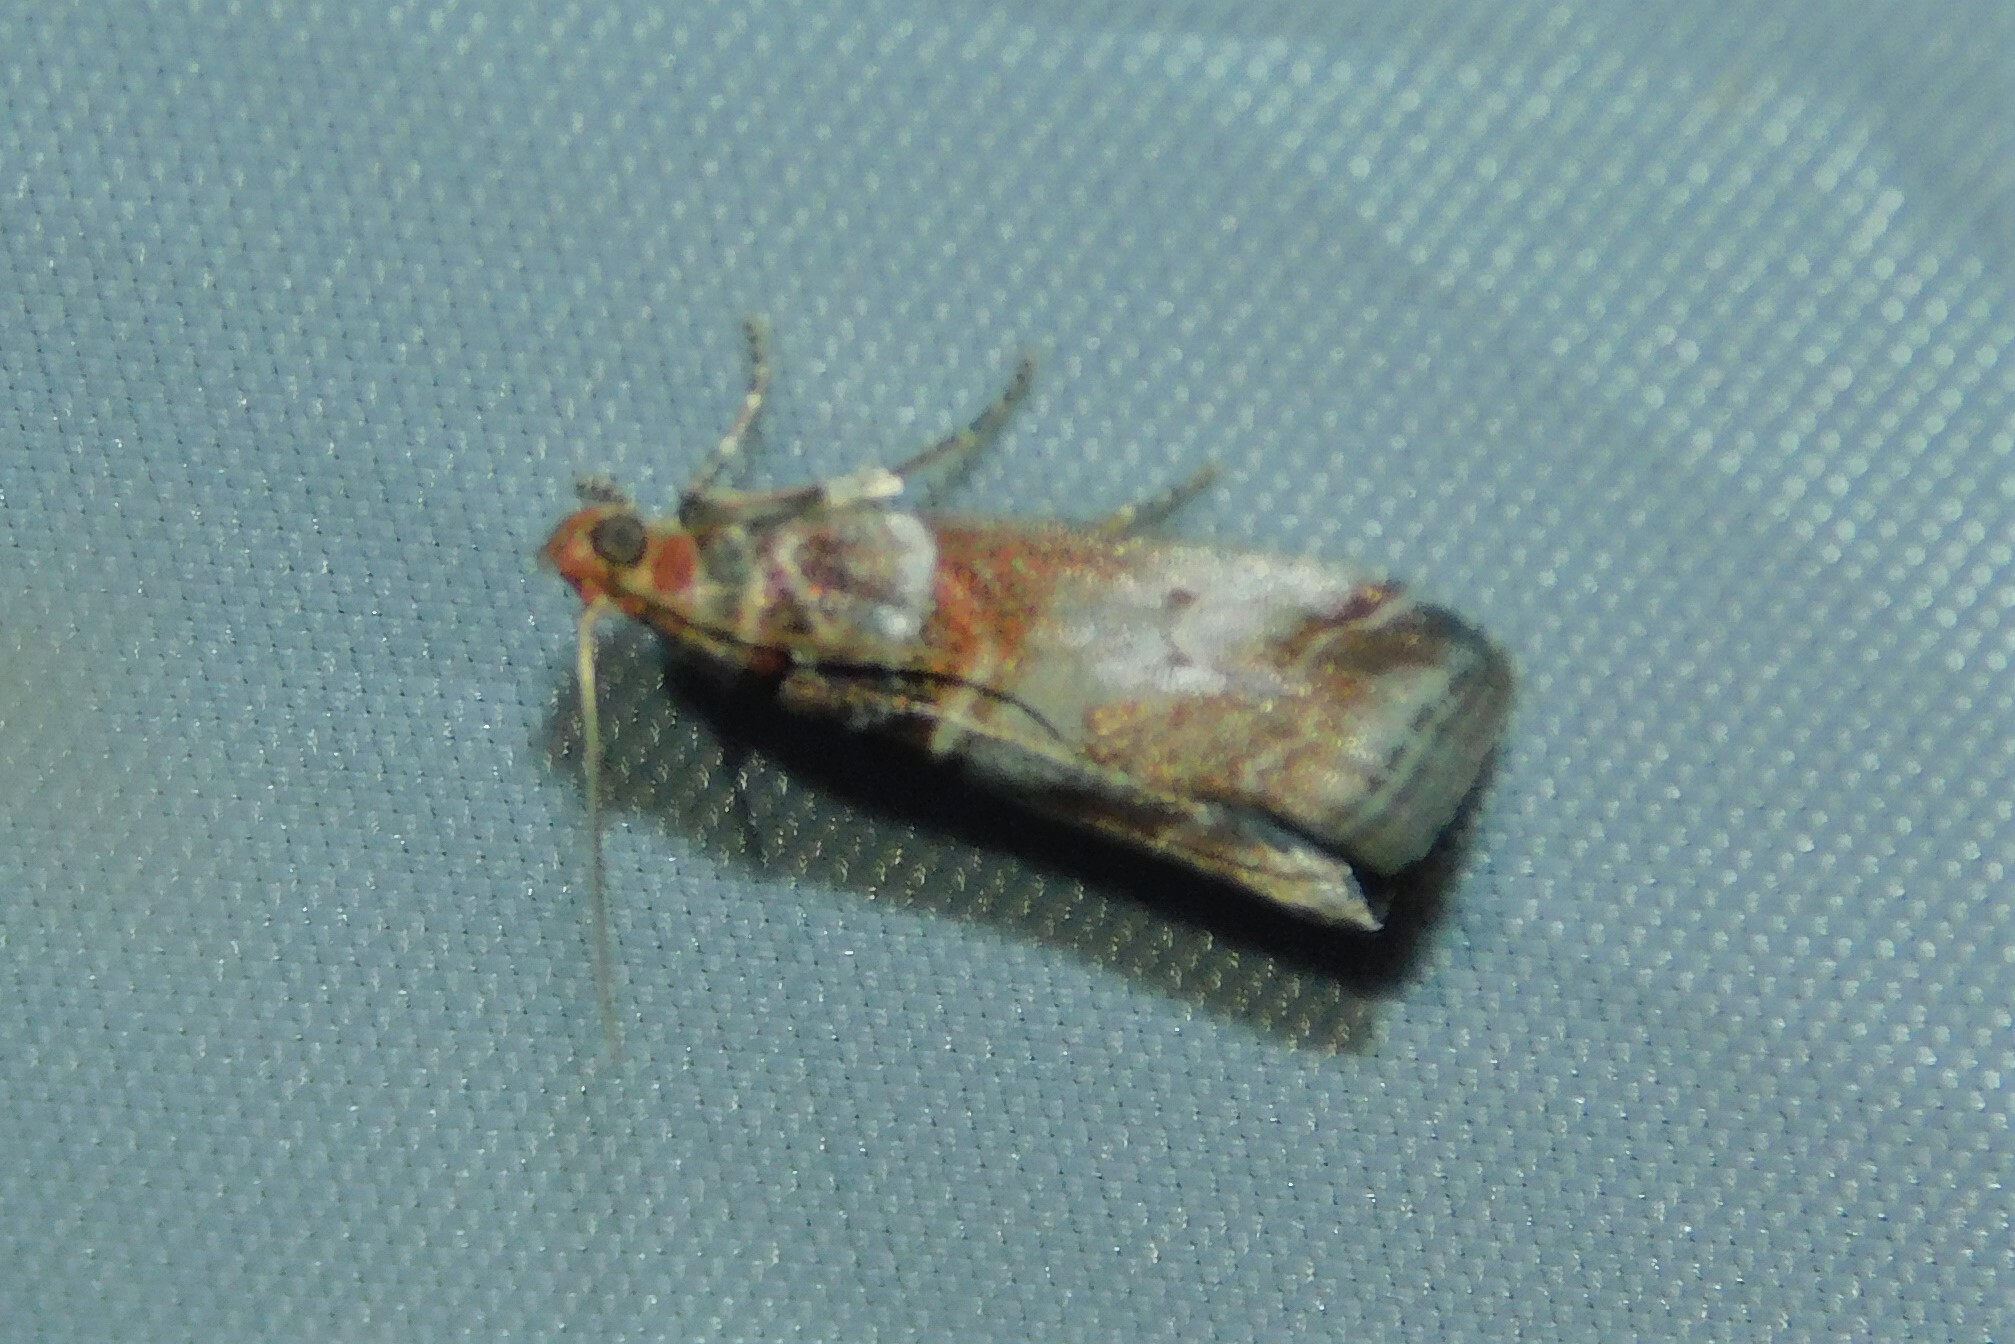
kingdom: Animalia
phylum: Arthropoda
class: Insecta
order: Lepidoptera
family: Pyralidae
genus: Acrobasis
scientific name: Acrobasis advenella
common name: Grey knot-horn
